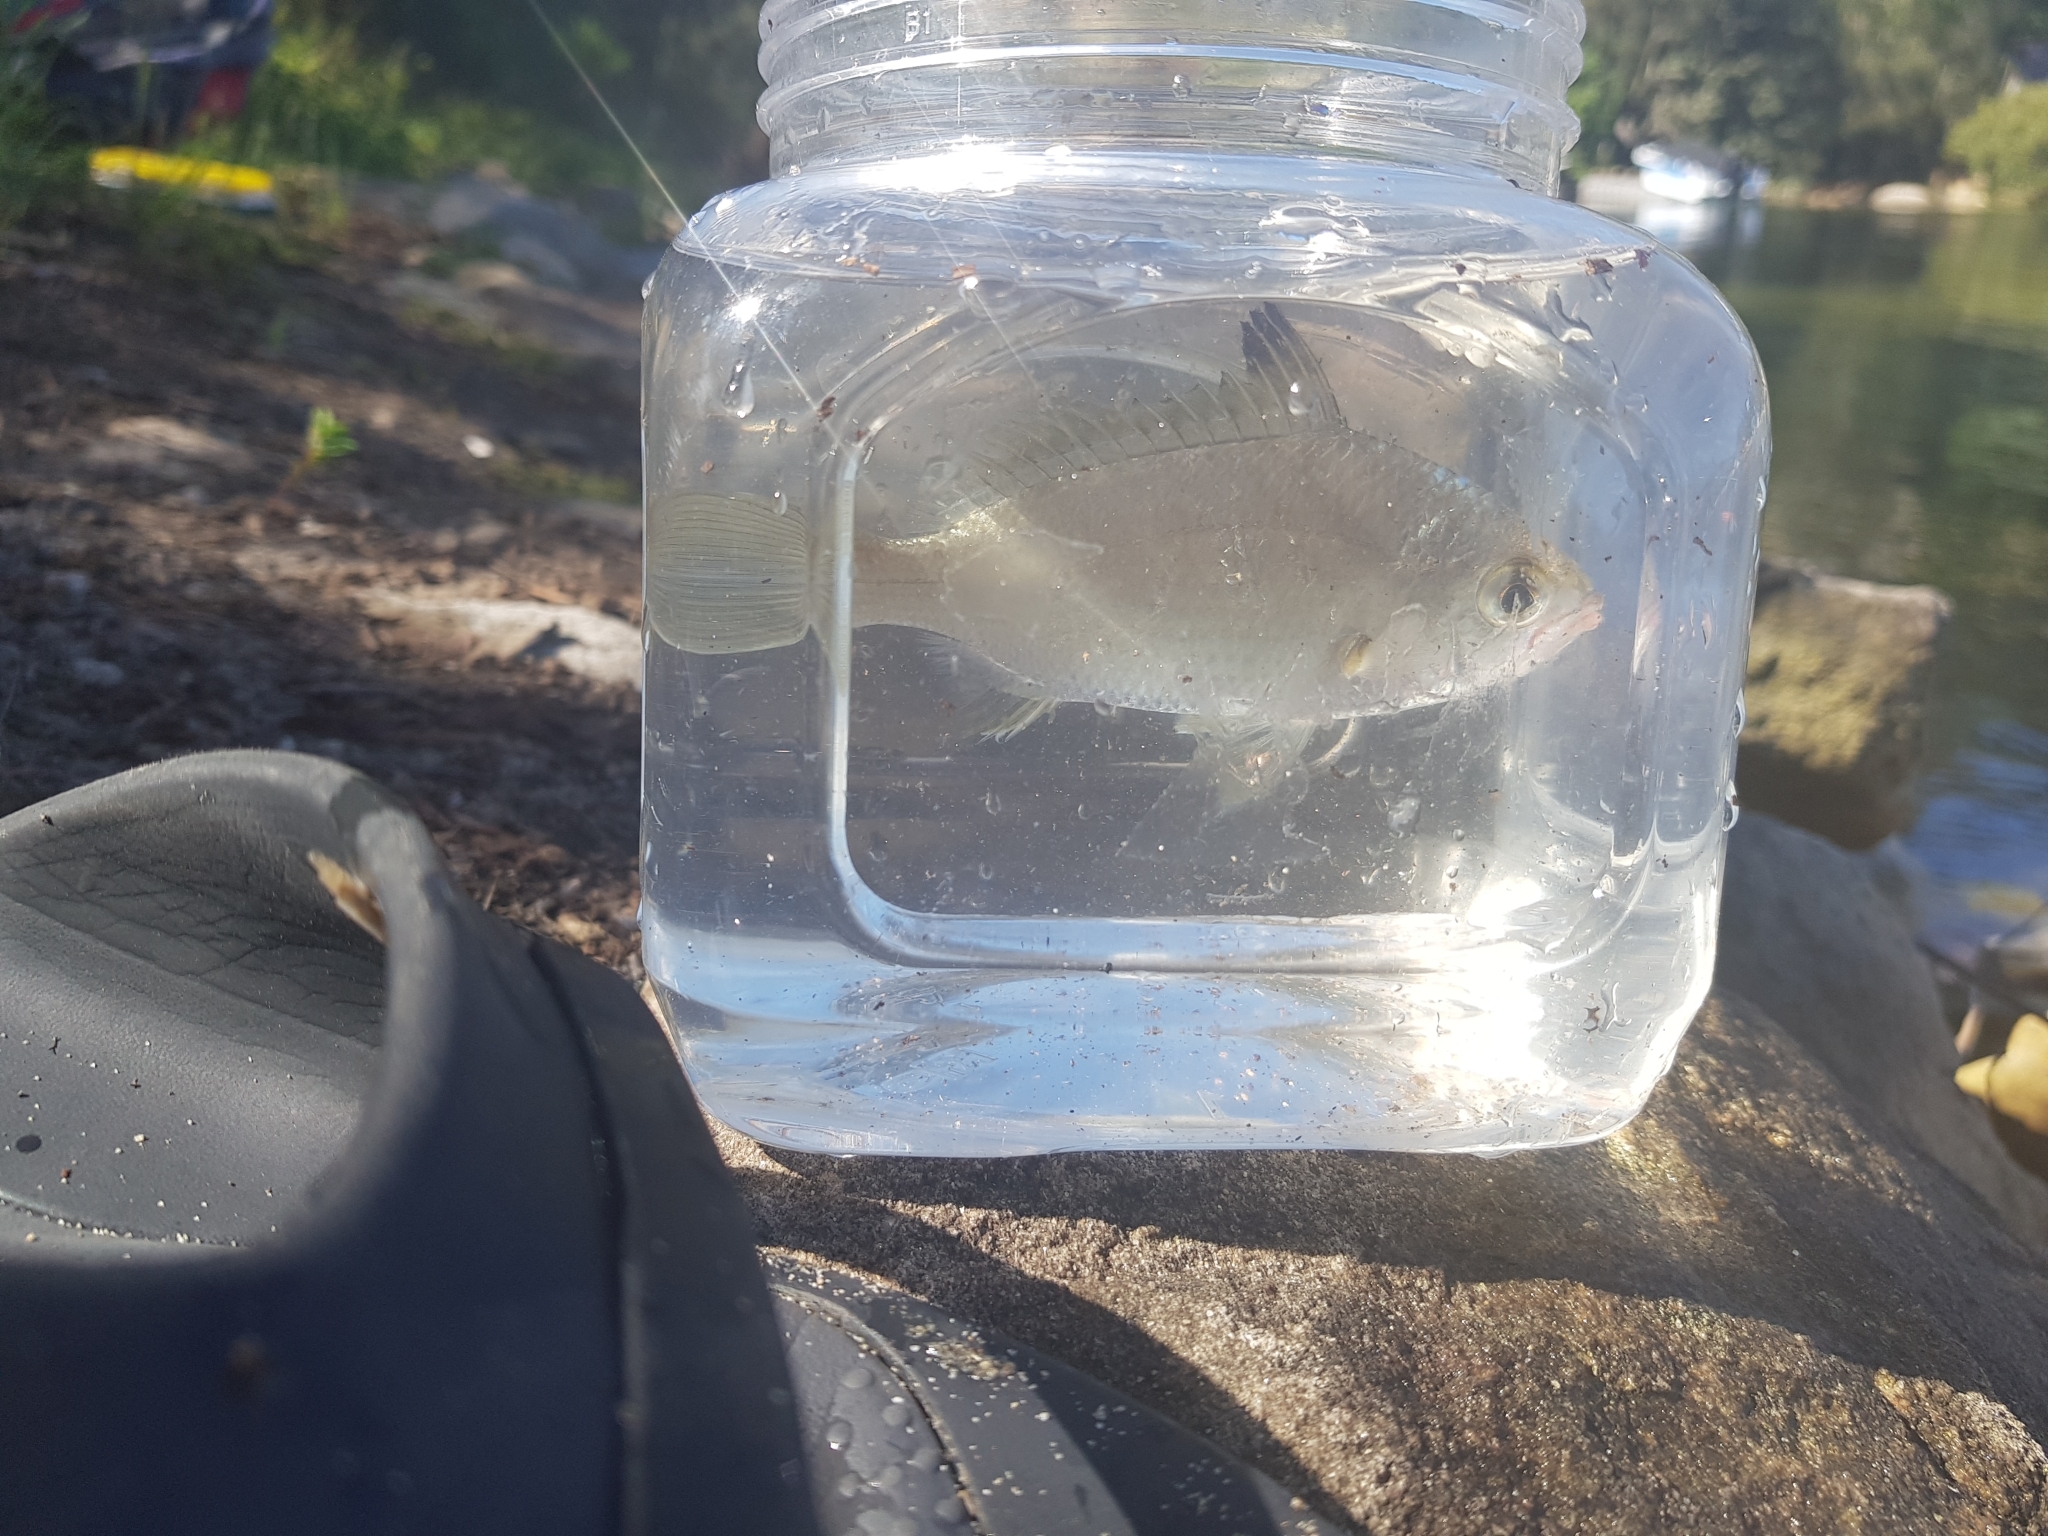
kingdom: Animalia
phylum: Chordata
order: Perciformes
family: Gerreidae
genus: Gerres
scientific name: Gerres subfasciatus
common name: Common silver belly
